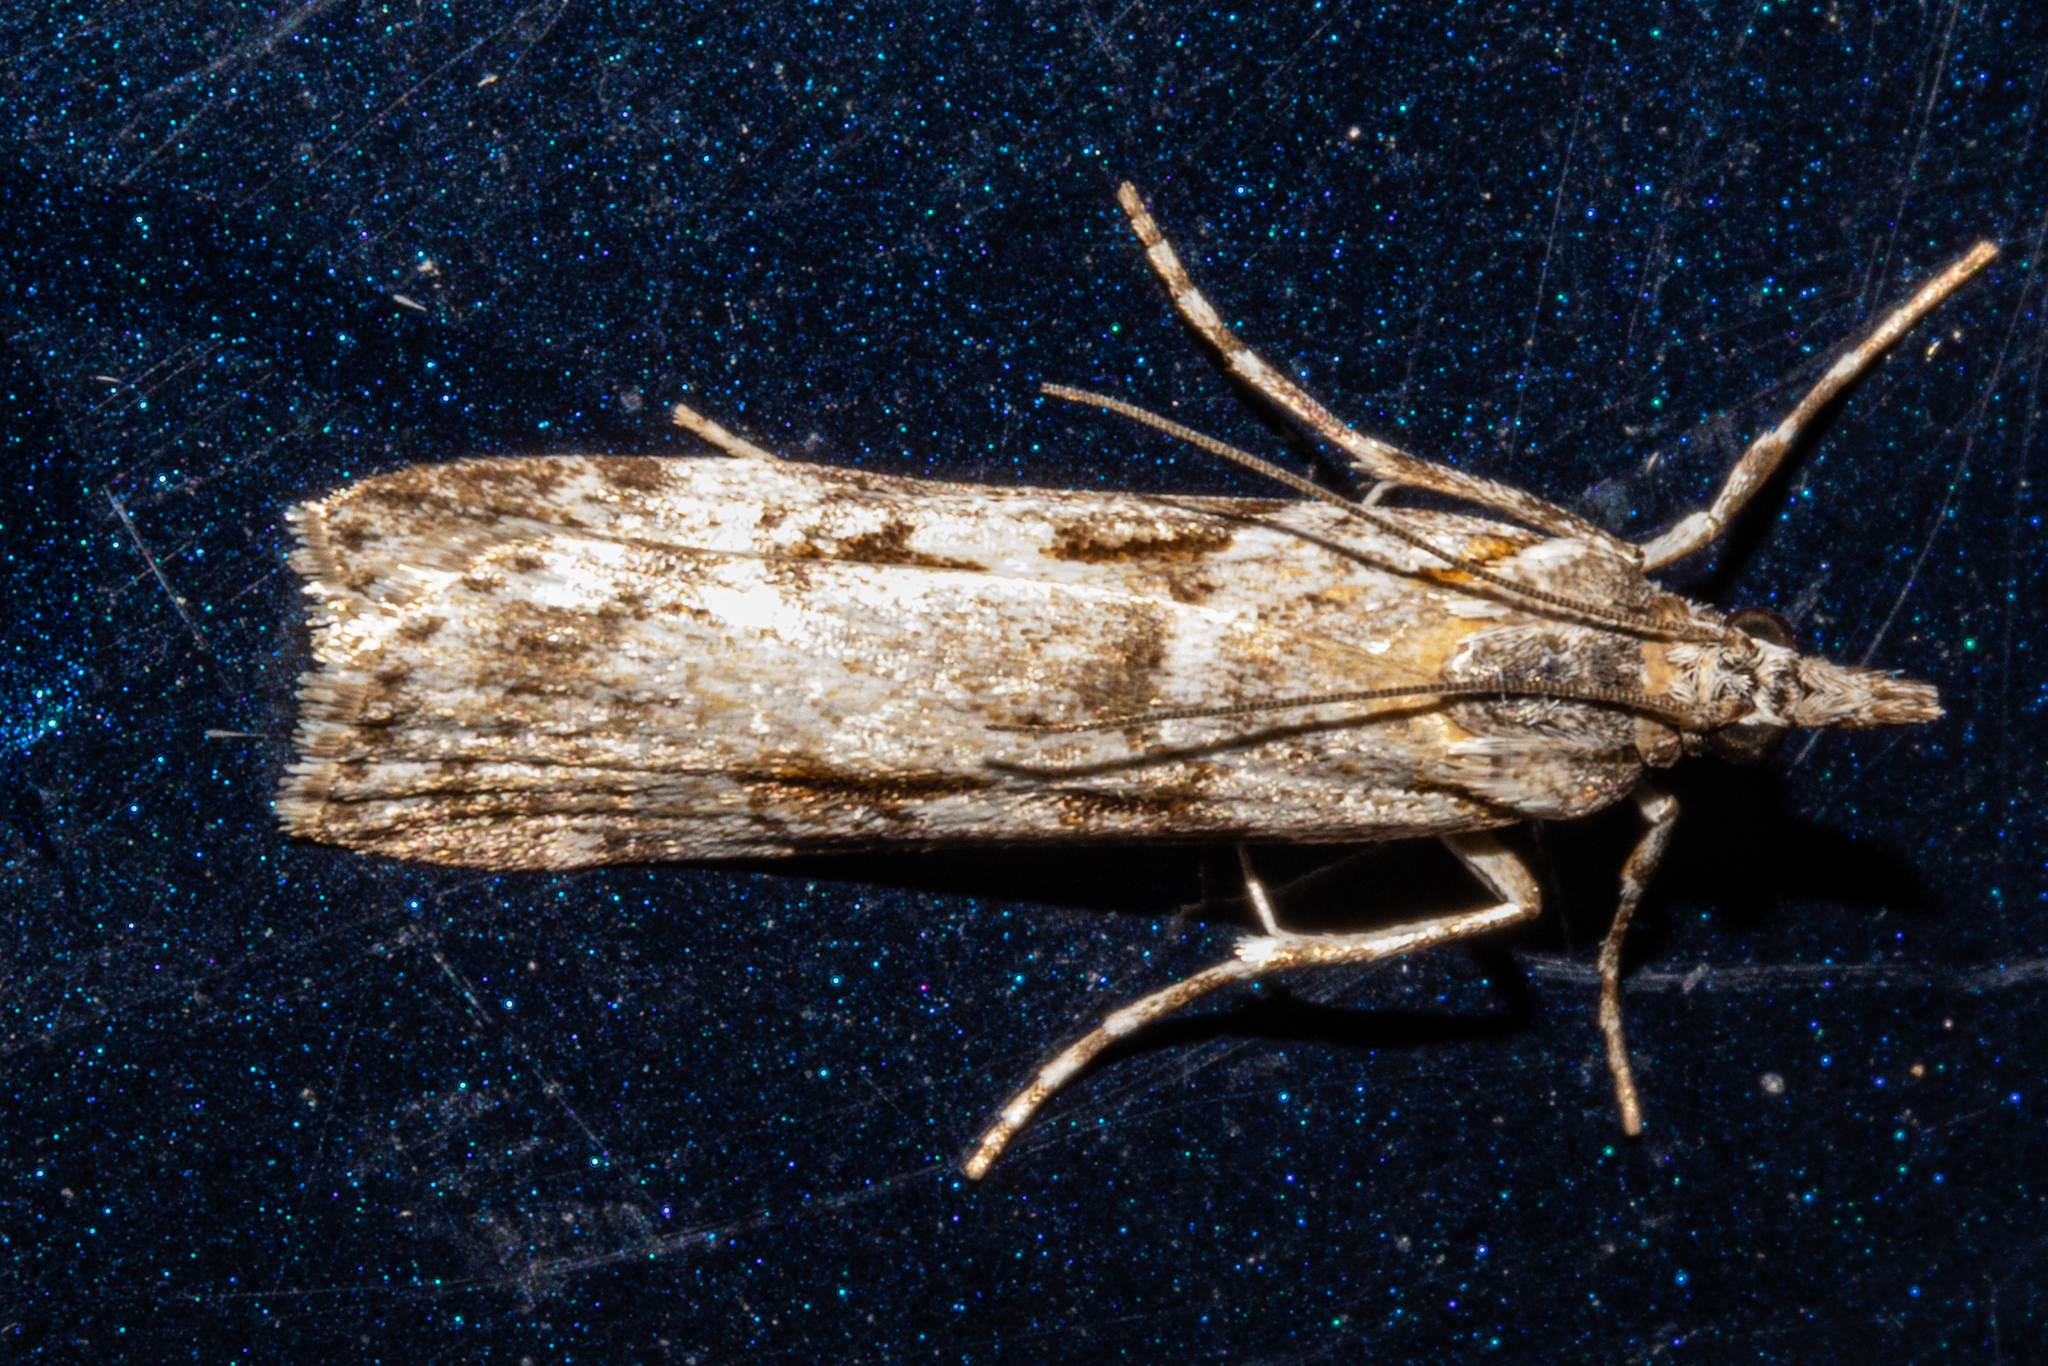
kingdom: Animalia
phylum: Arthropoda
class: Insecta
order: Lepidoptera
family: Crambidae
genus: Scoparia
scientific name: Scoparia petrina
